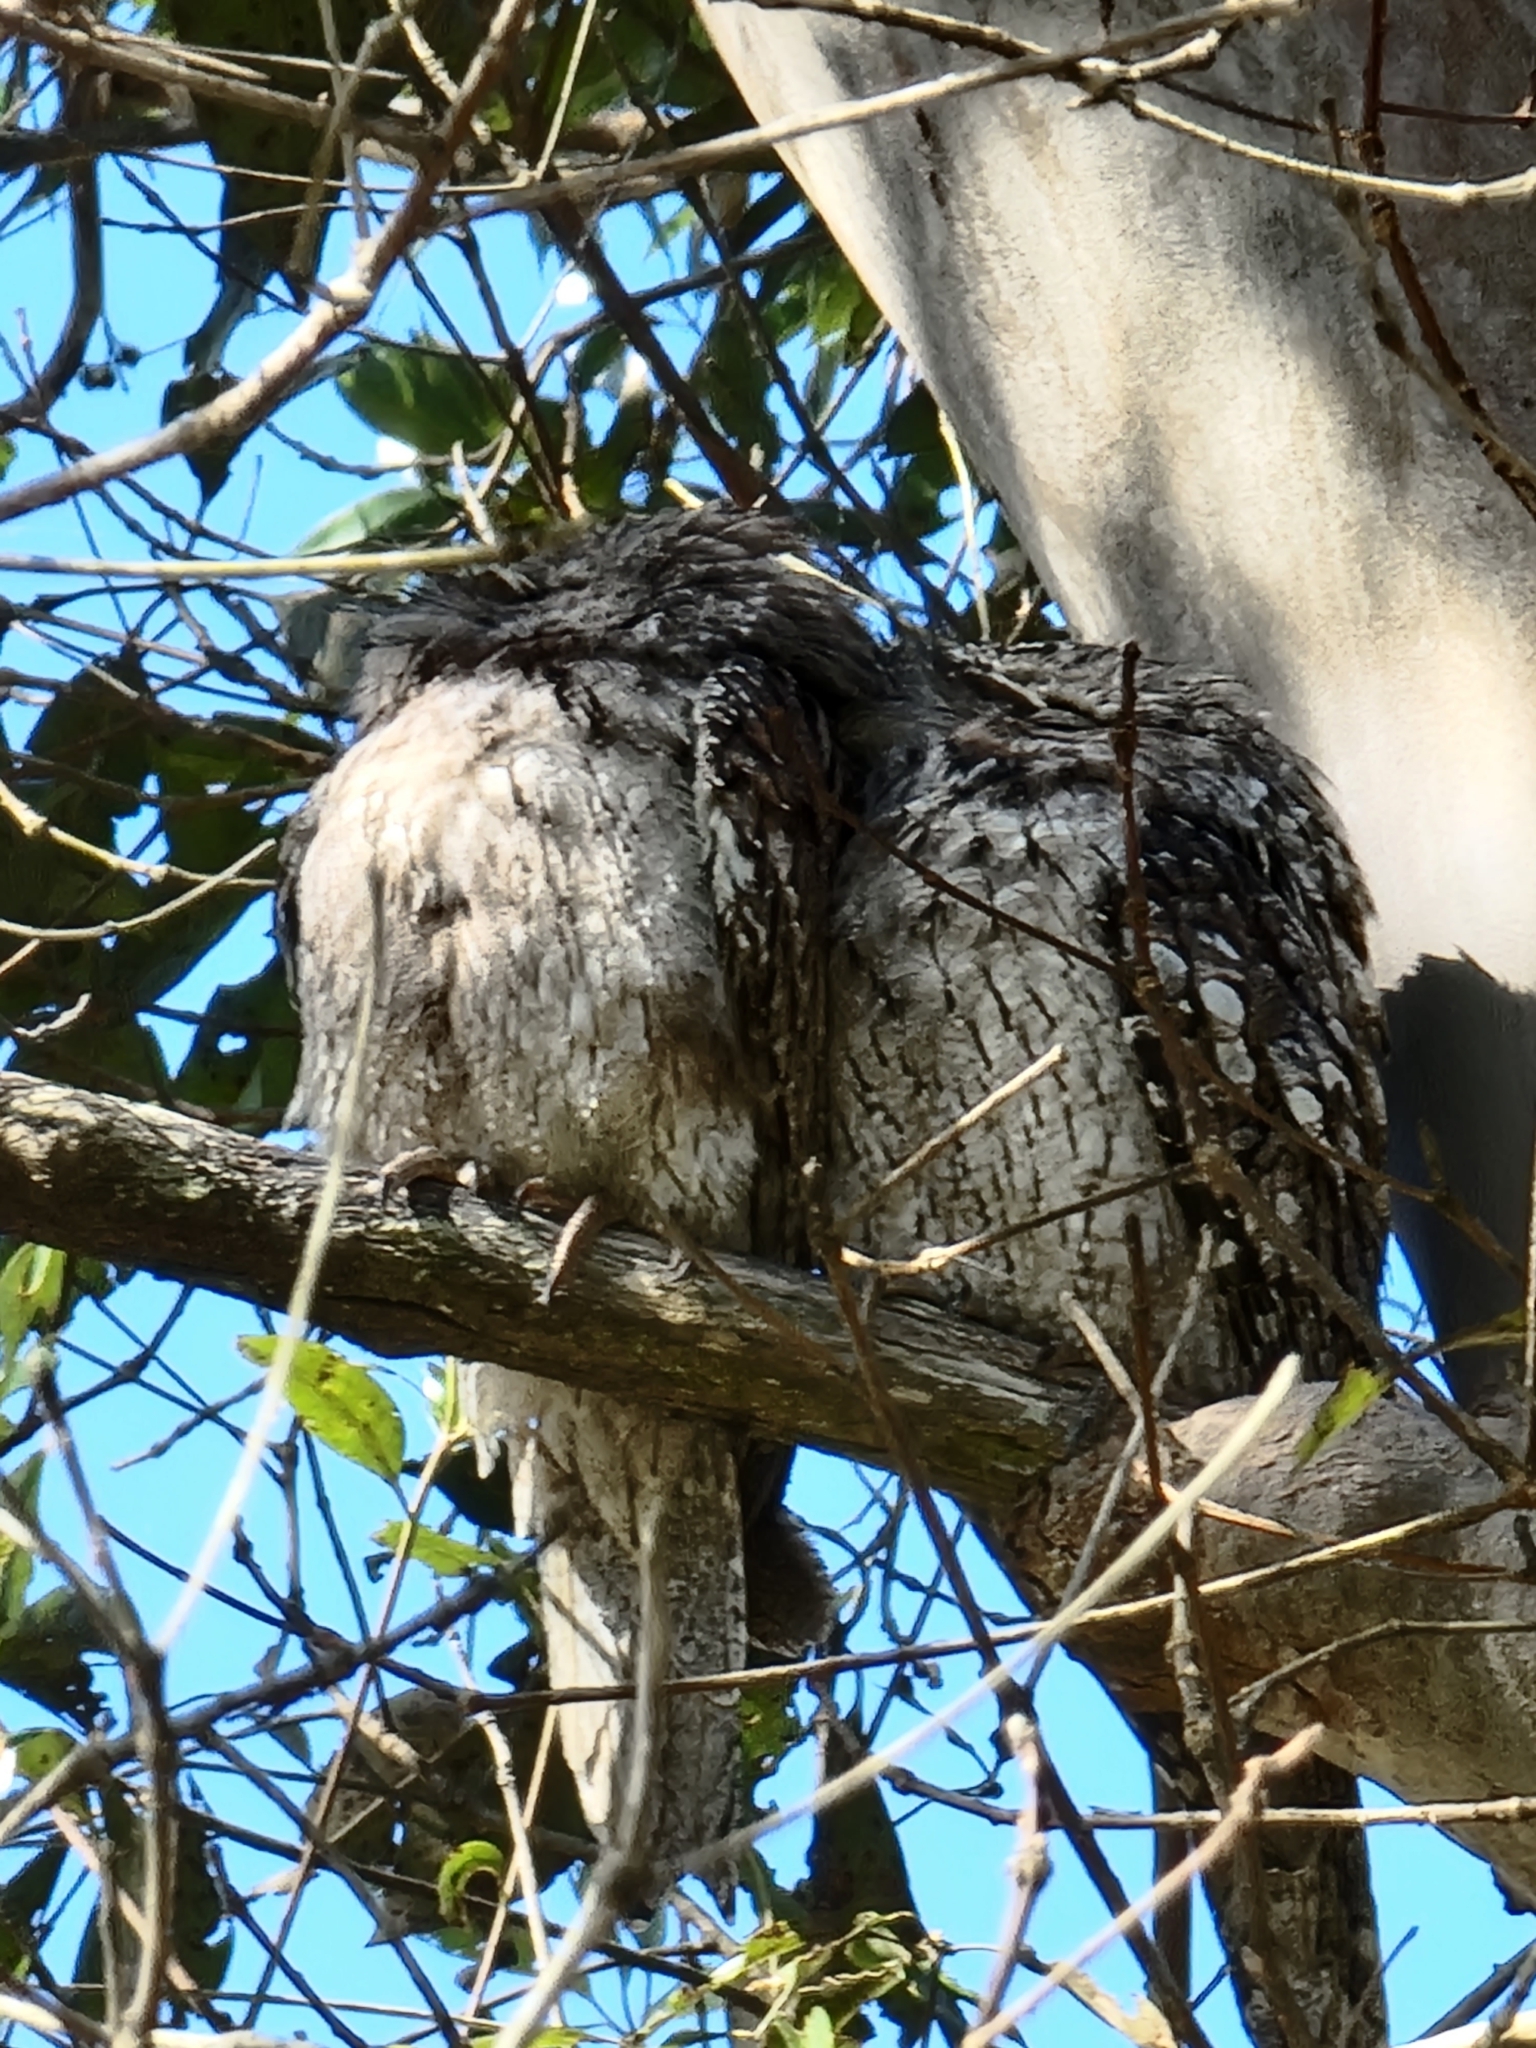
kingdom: Animalia
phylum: Chordata
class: Aves
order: Caprimulgiformes
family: Podargidae
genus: Podargus
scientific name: Podargus strigoides
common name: Tawny frogmouth
